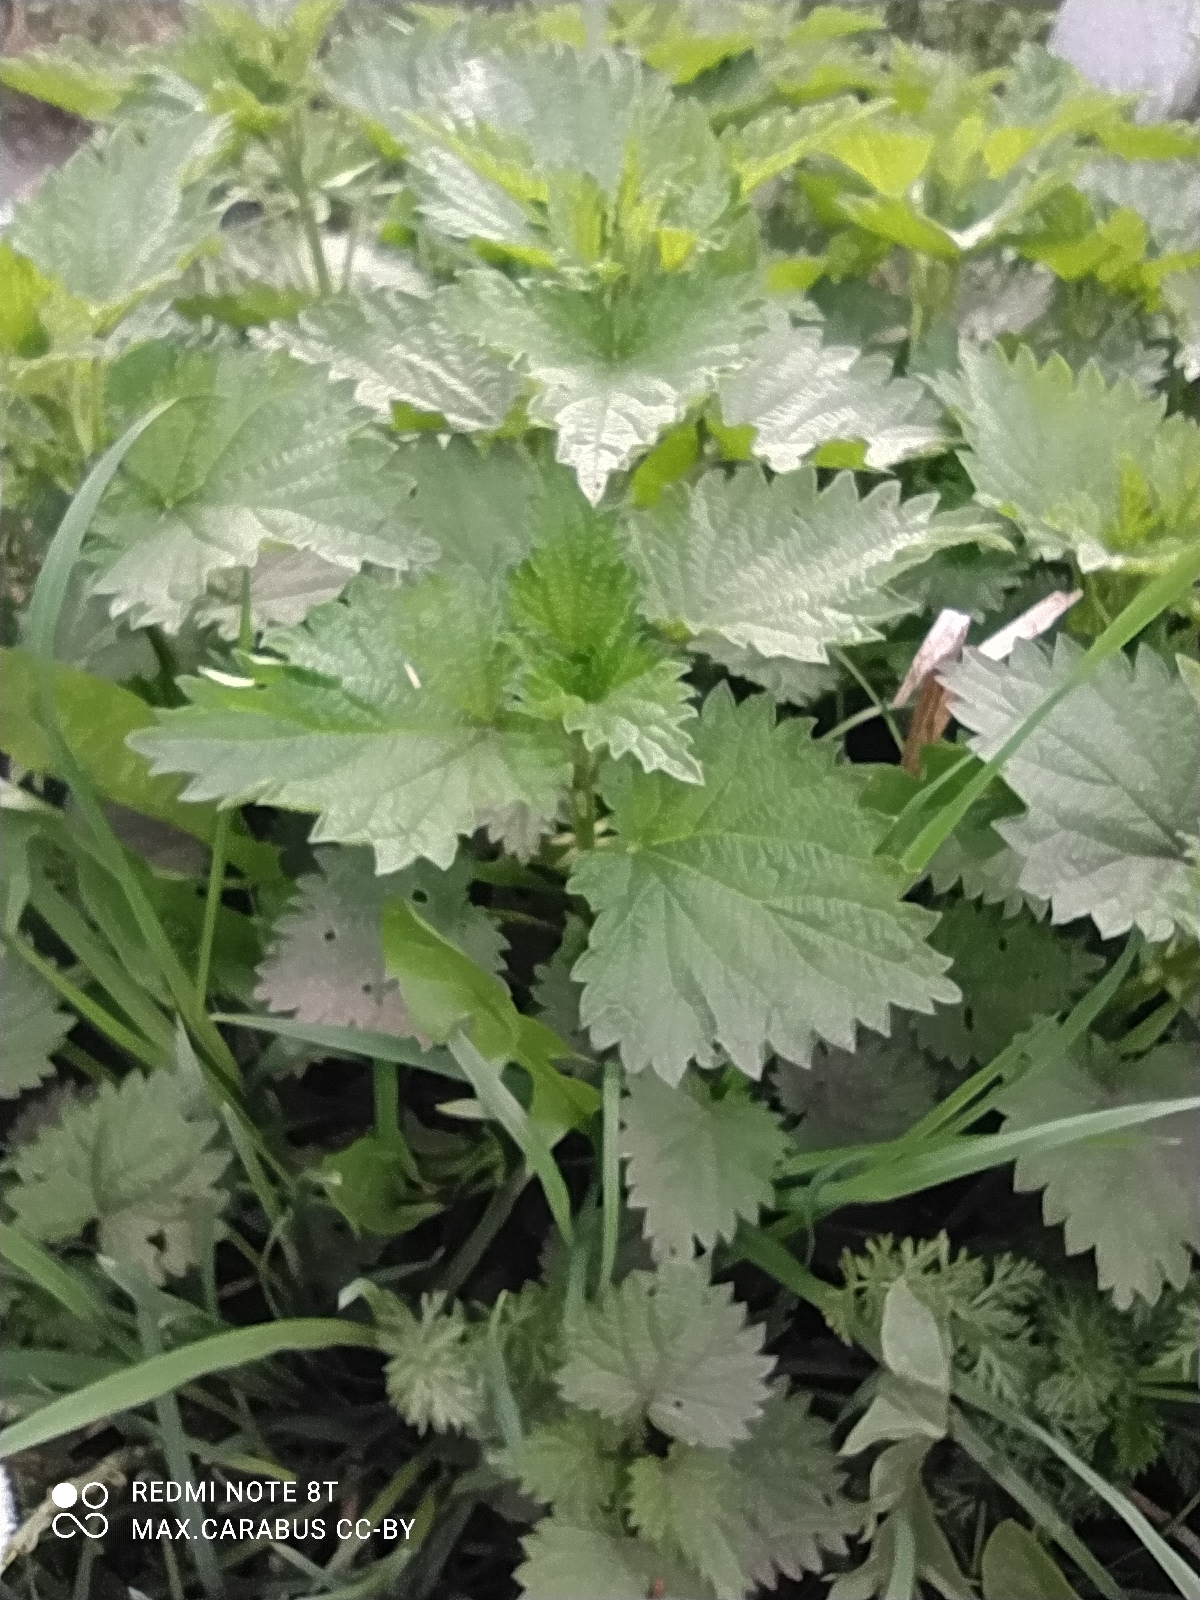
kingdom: Plantae
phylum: Tracheophyta
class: Magnoliopsida
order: Rosales
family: Urticaceae
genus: Urtica
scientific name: Urtica dioica
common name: Common nettle
